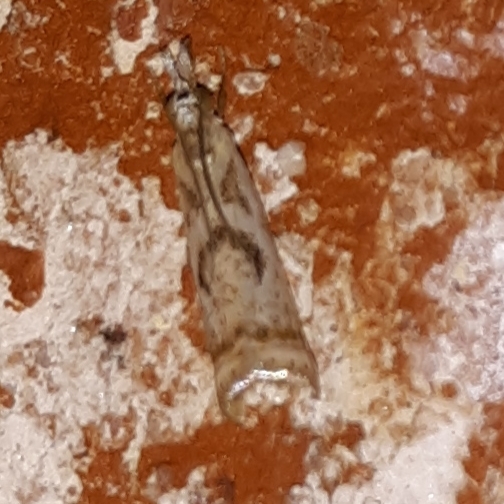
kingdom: Animalia
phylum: Arthropoda
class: Insecta
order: Lepidoptera
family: Crambidae
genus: Microcrambus
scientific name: Microcrambus elegans
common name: Elegant grass-veneer
